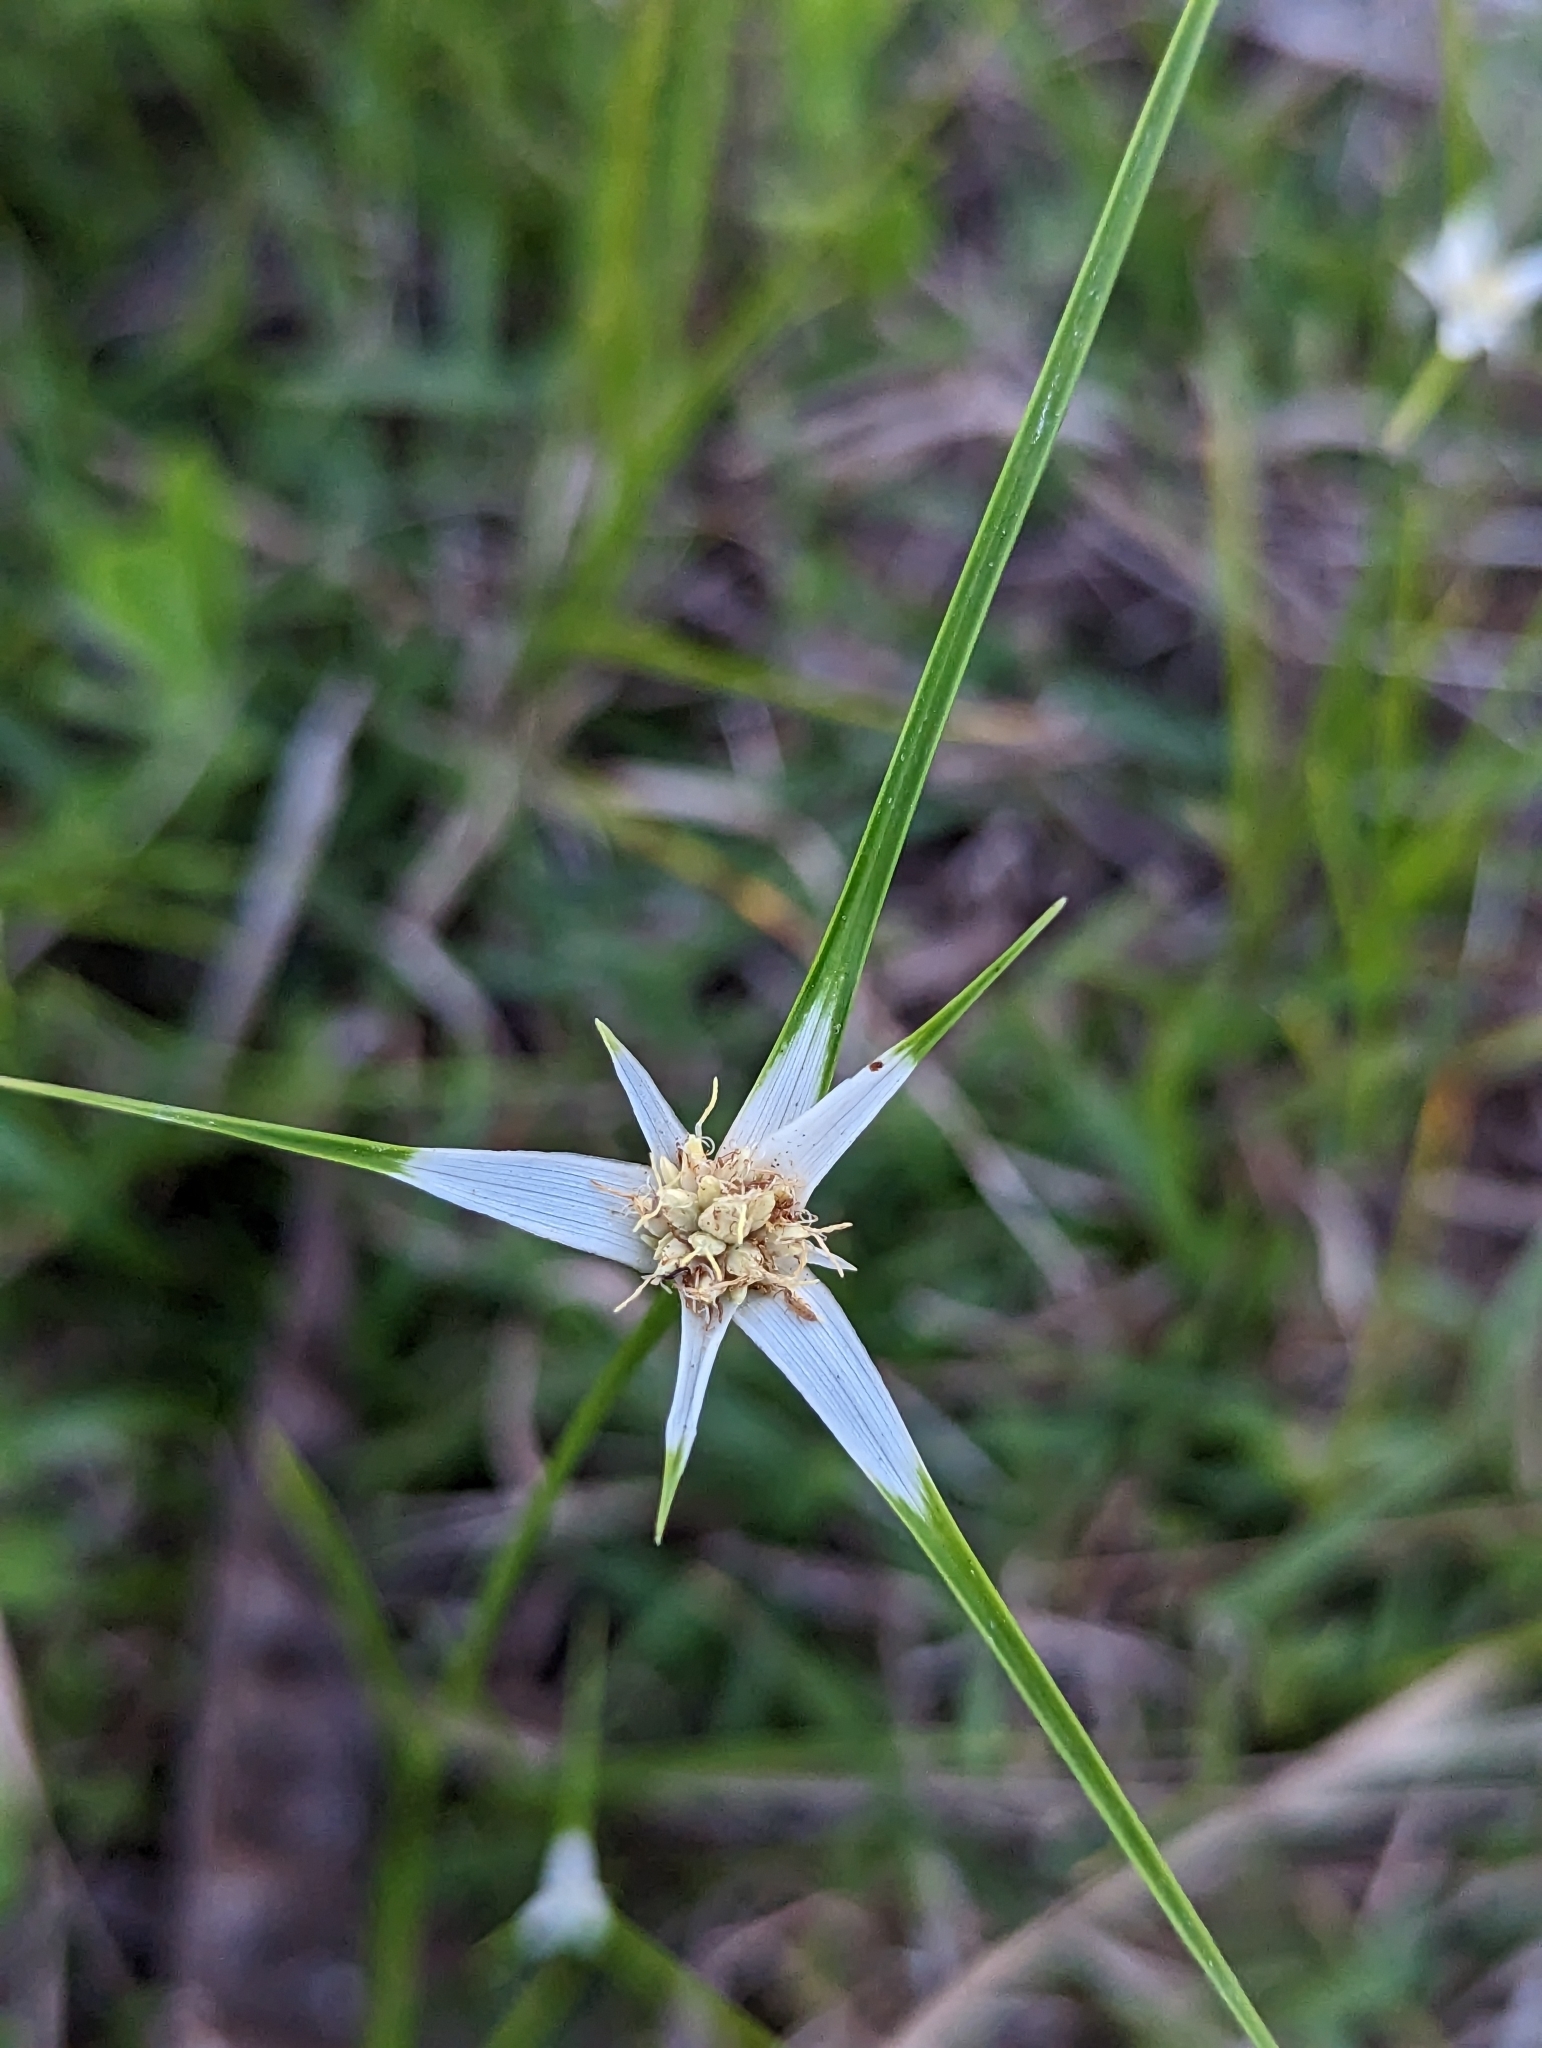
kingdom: Plantae
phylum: Tracheophyta
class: Liliopsida
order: Poales
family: Cyperaceae
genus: Rhynchospora
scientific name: Rhynchospora colorata
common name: Star sedge
